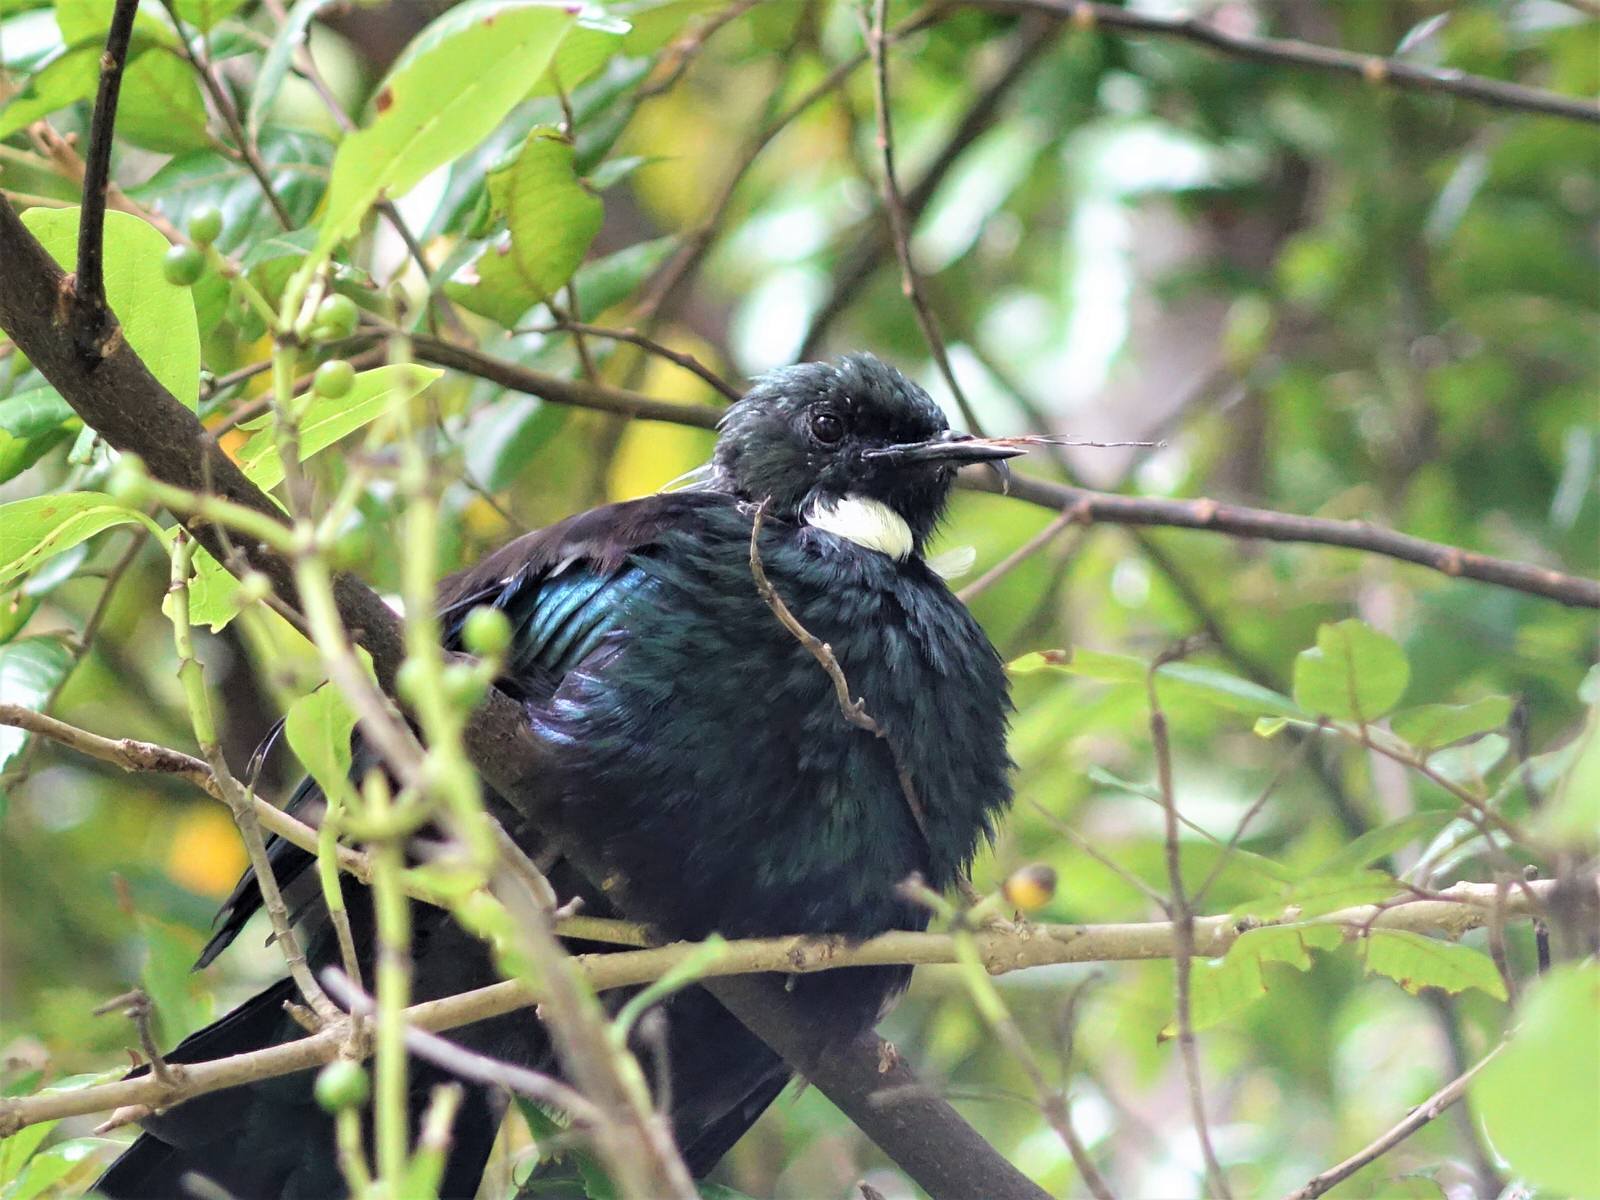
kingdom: Animalia
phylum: Chordata
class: Aves
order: Passeriformes
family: Meliphagidae
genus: Prosthemadera
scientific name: Prosthemadera novaeseelandiae
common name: Tui
